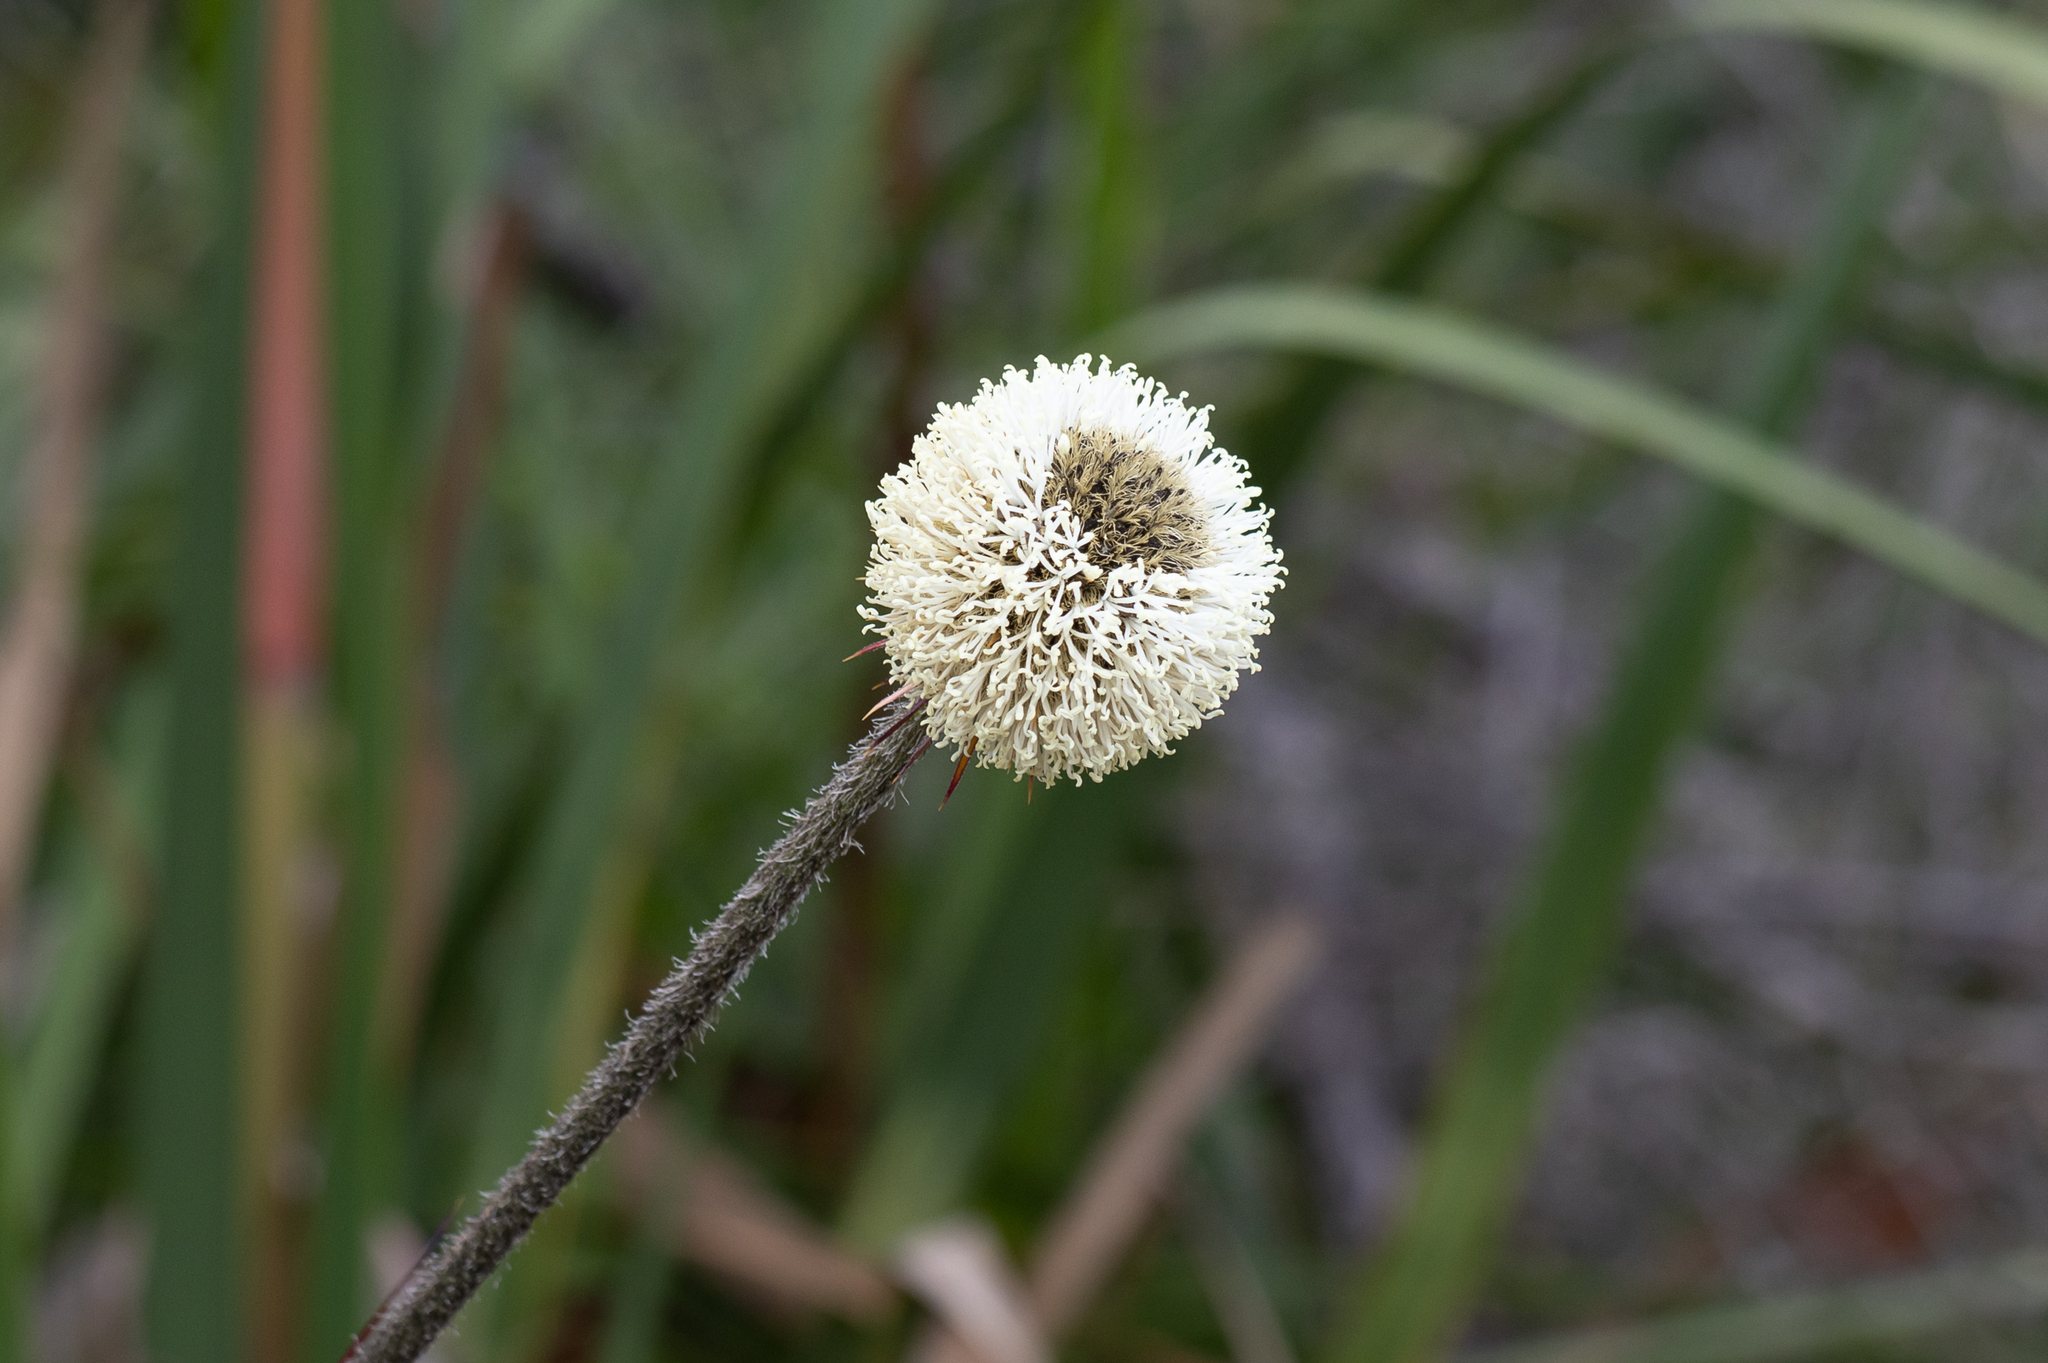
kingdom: Plantae
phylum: Tracheophyta
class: Liliopsida
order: Arecales
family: Dasypogonaceae
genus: Dasypogon
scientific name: Dasypogon bromeliifolius
